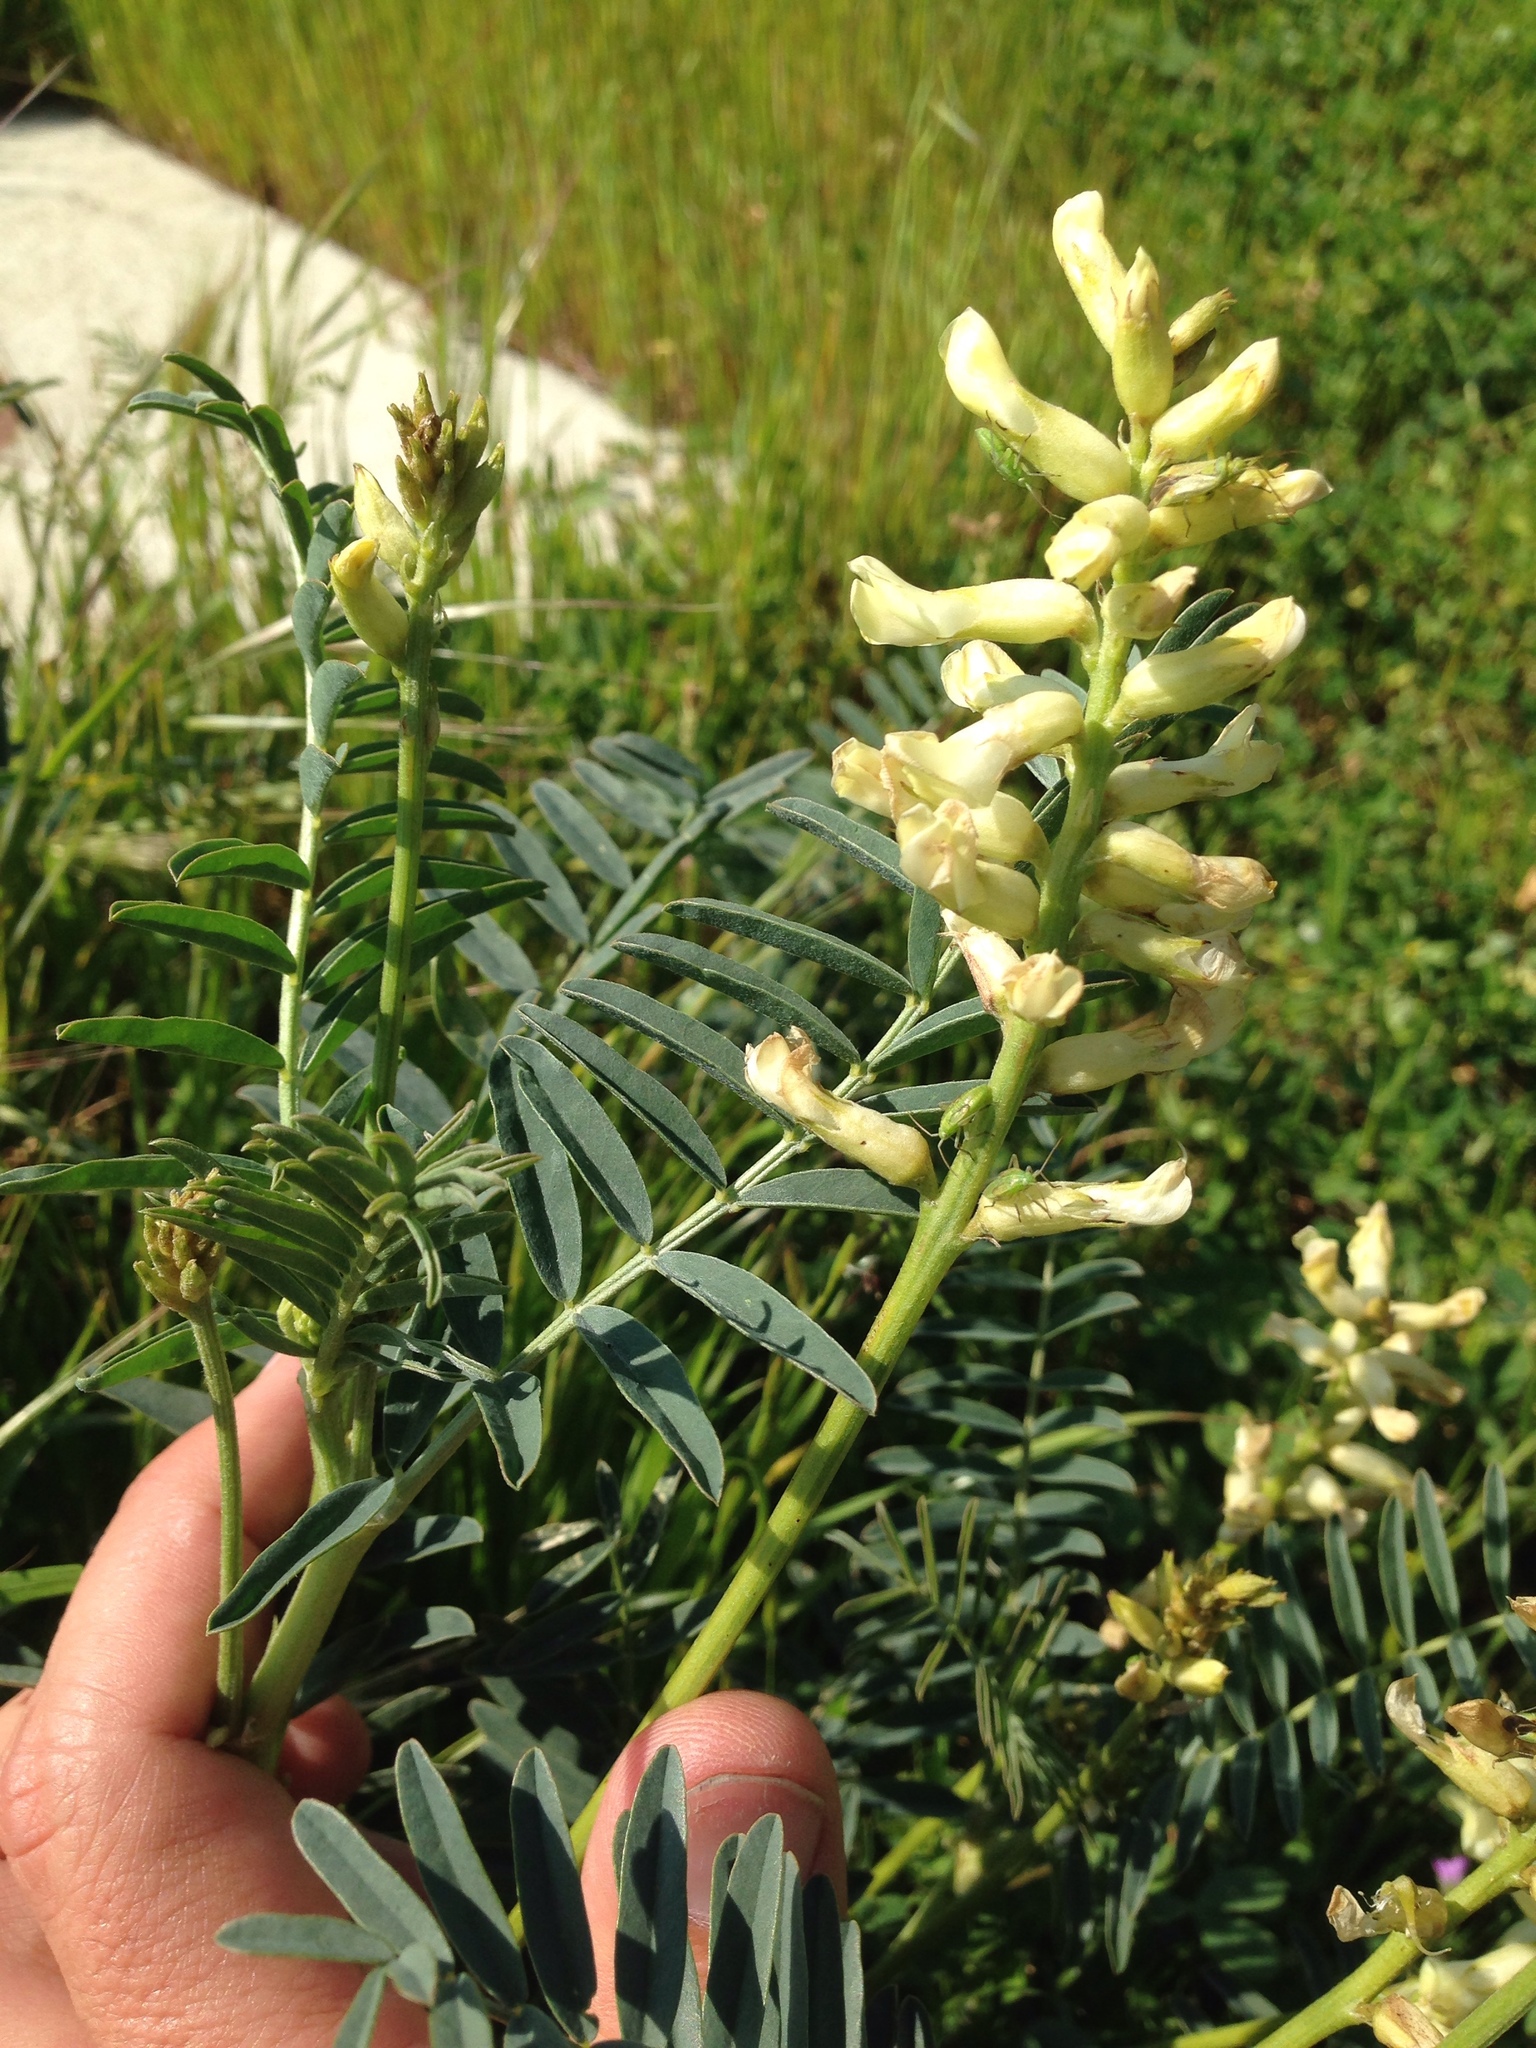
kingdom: Plantae
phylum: Tracheophyta
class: Magnoliopsida
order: Fabales
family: Fabaceae
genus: Astragalus
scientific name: Astragalus asymmetricus
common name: Horse locoweed
